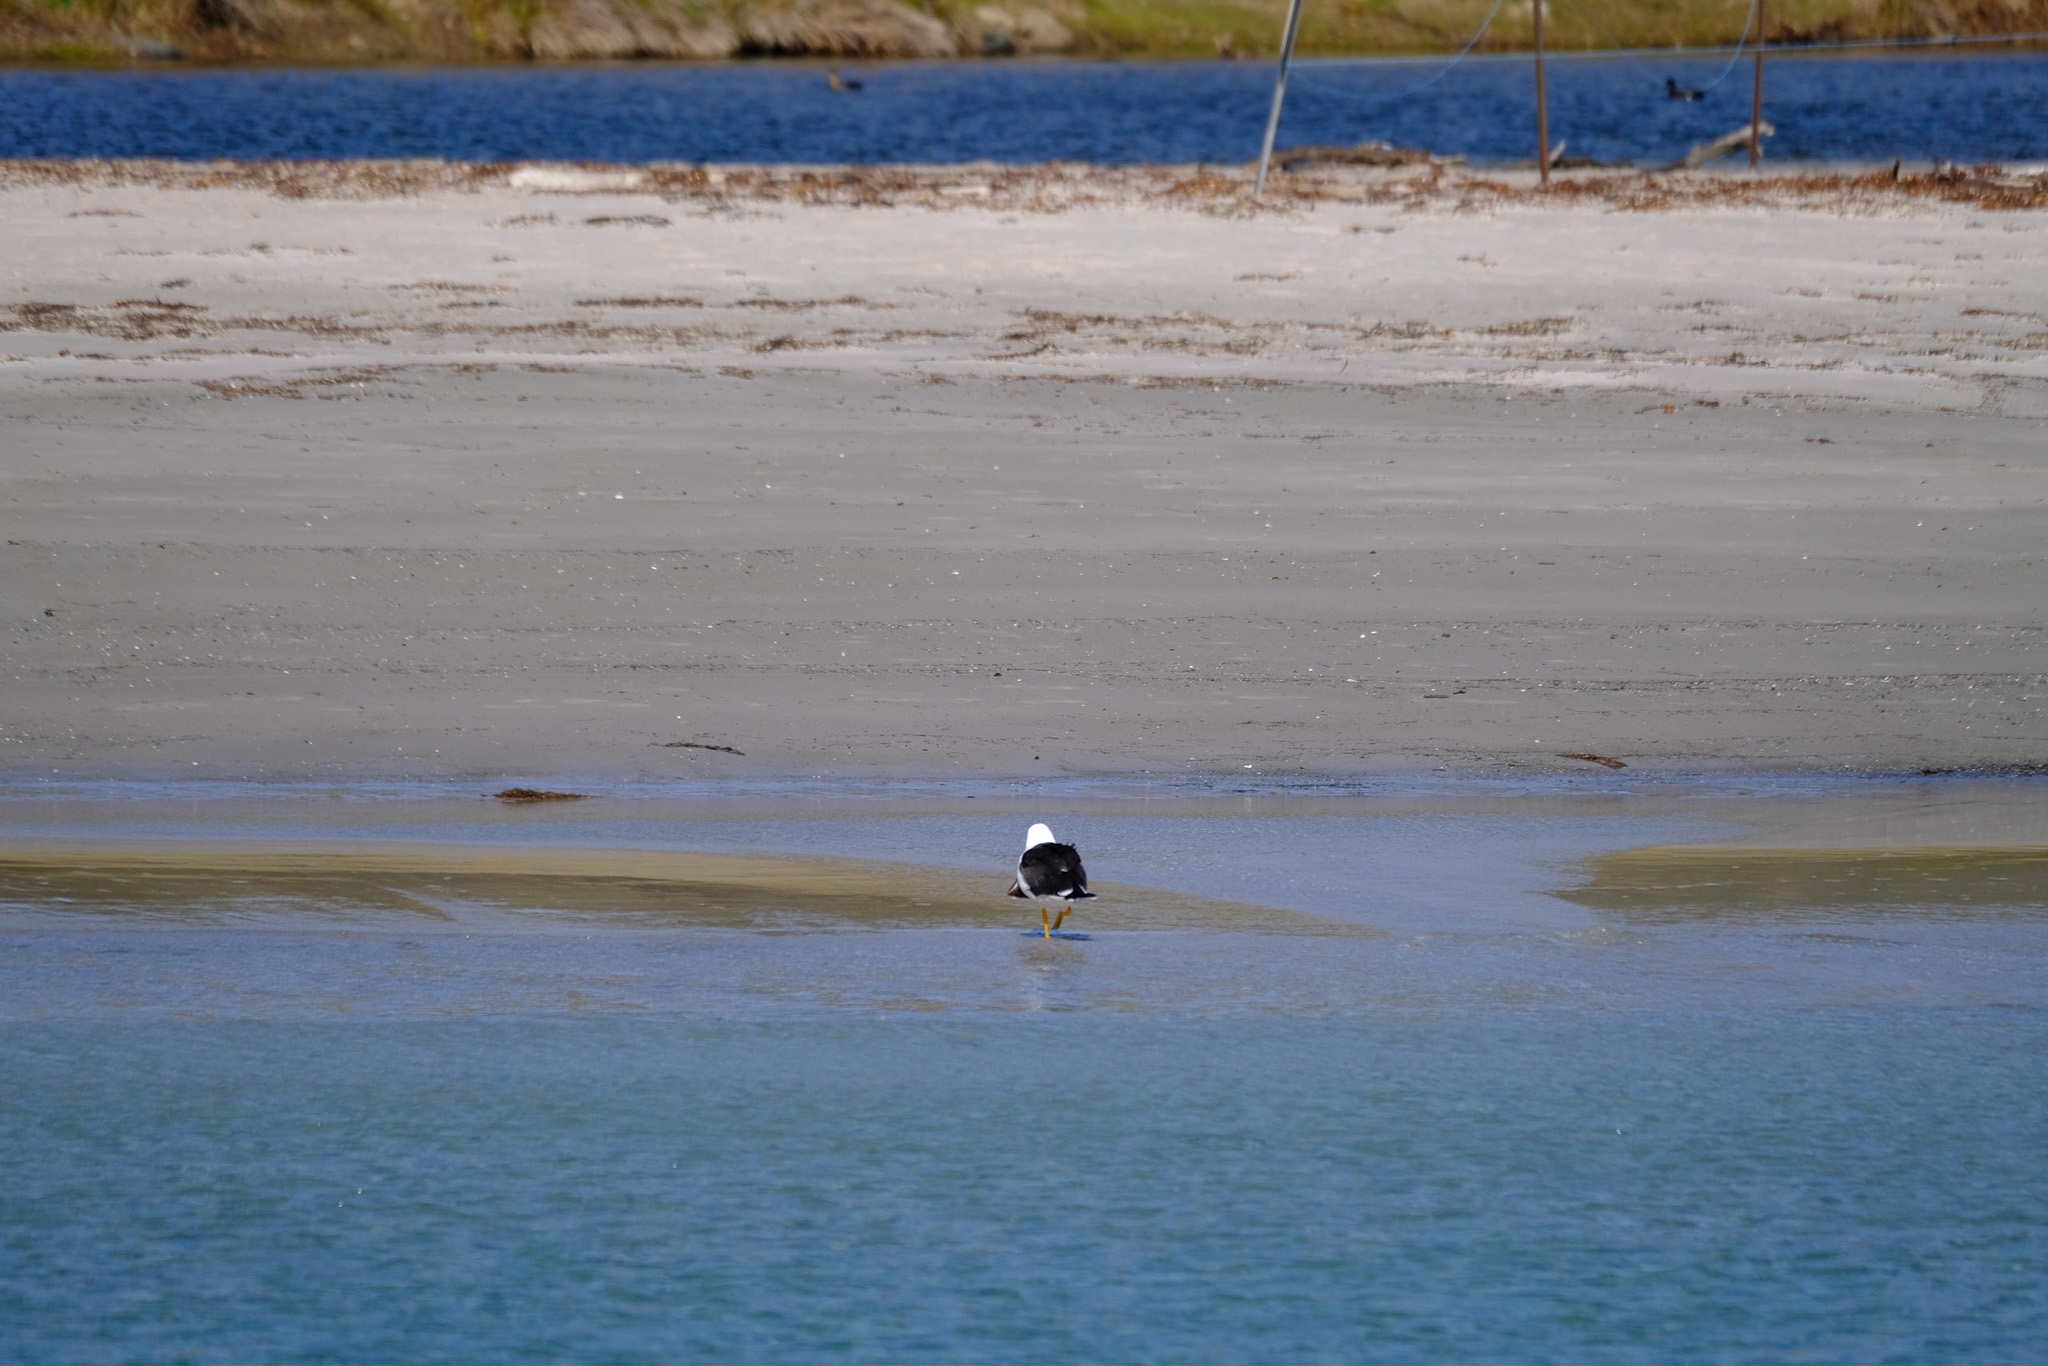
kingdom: Animalia
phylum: Chordata
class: Aves
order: Charadriiformes
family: Laridae
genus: Larus
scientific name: Larus pacificus
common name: Pacific gull
